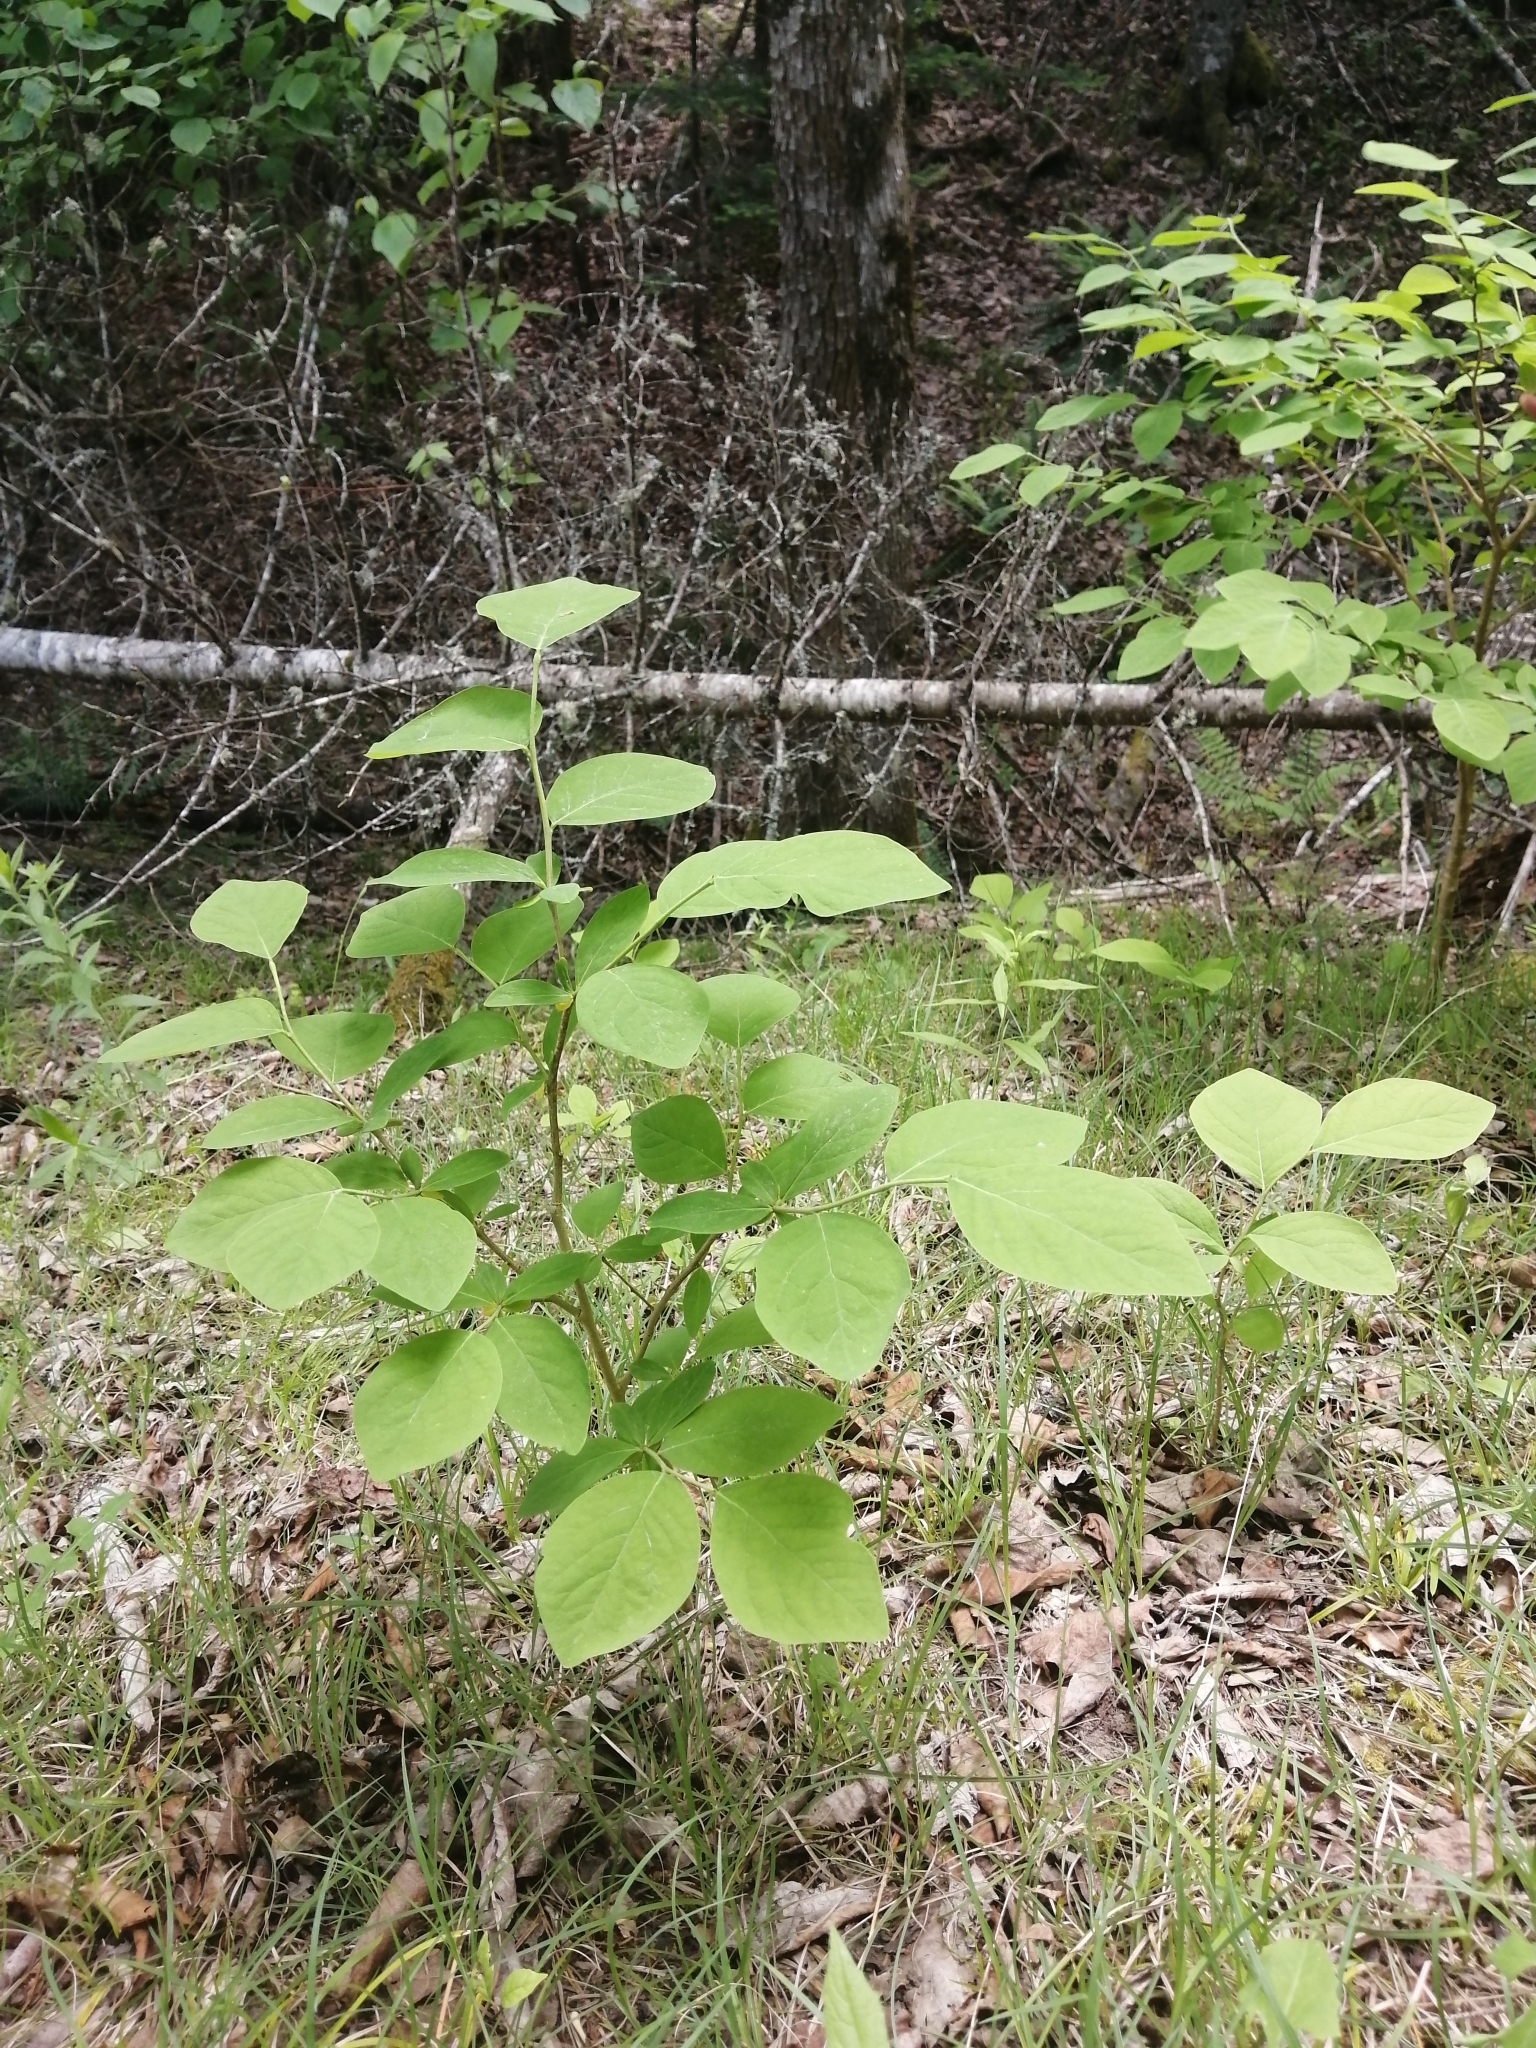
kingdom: Plantae
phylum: Tracheophyta
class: Magnoliopsida
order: Malvales
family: Thymelaeaceae
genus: Dirca
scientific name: Dirca palustris
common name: Leatherwood
